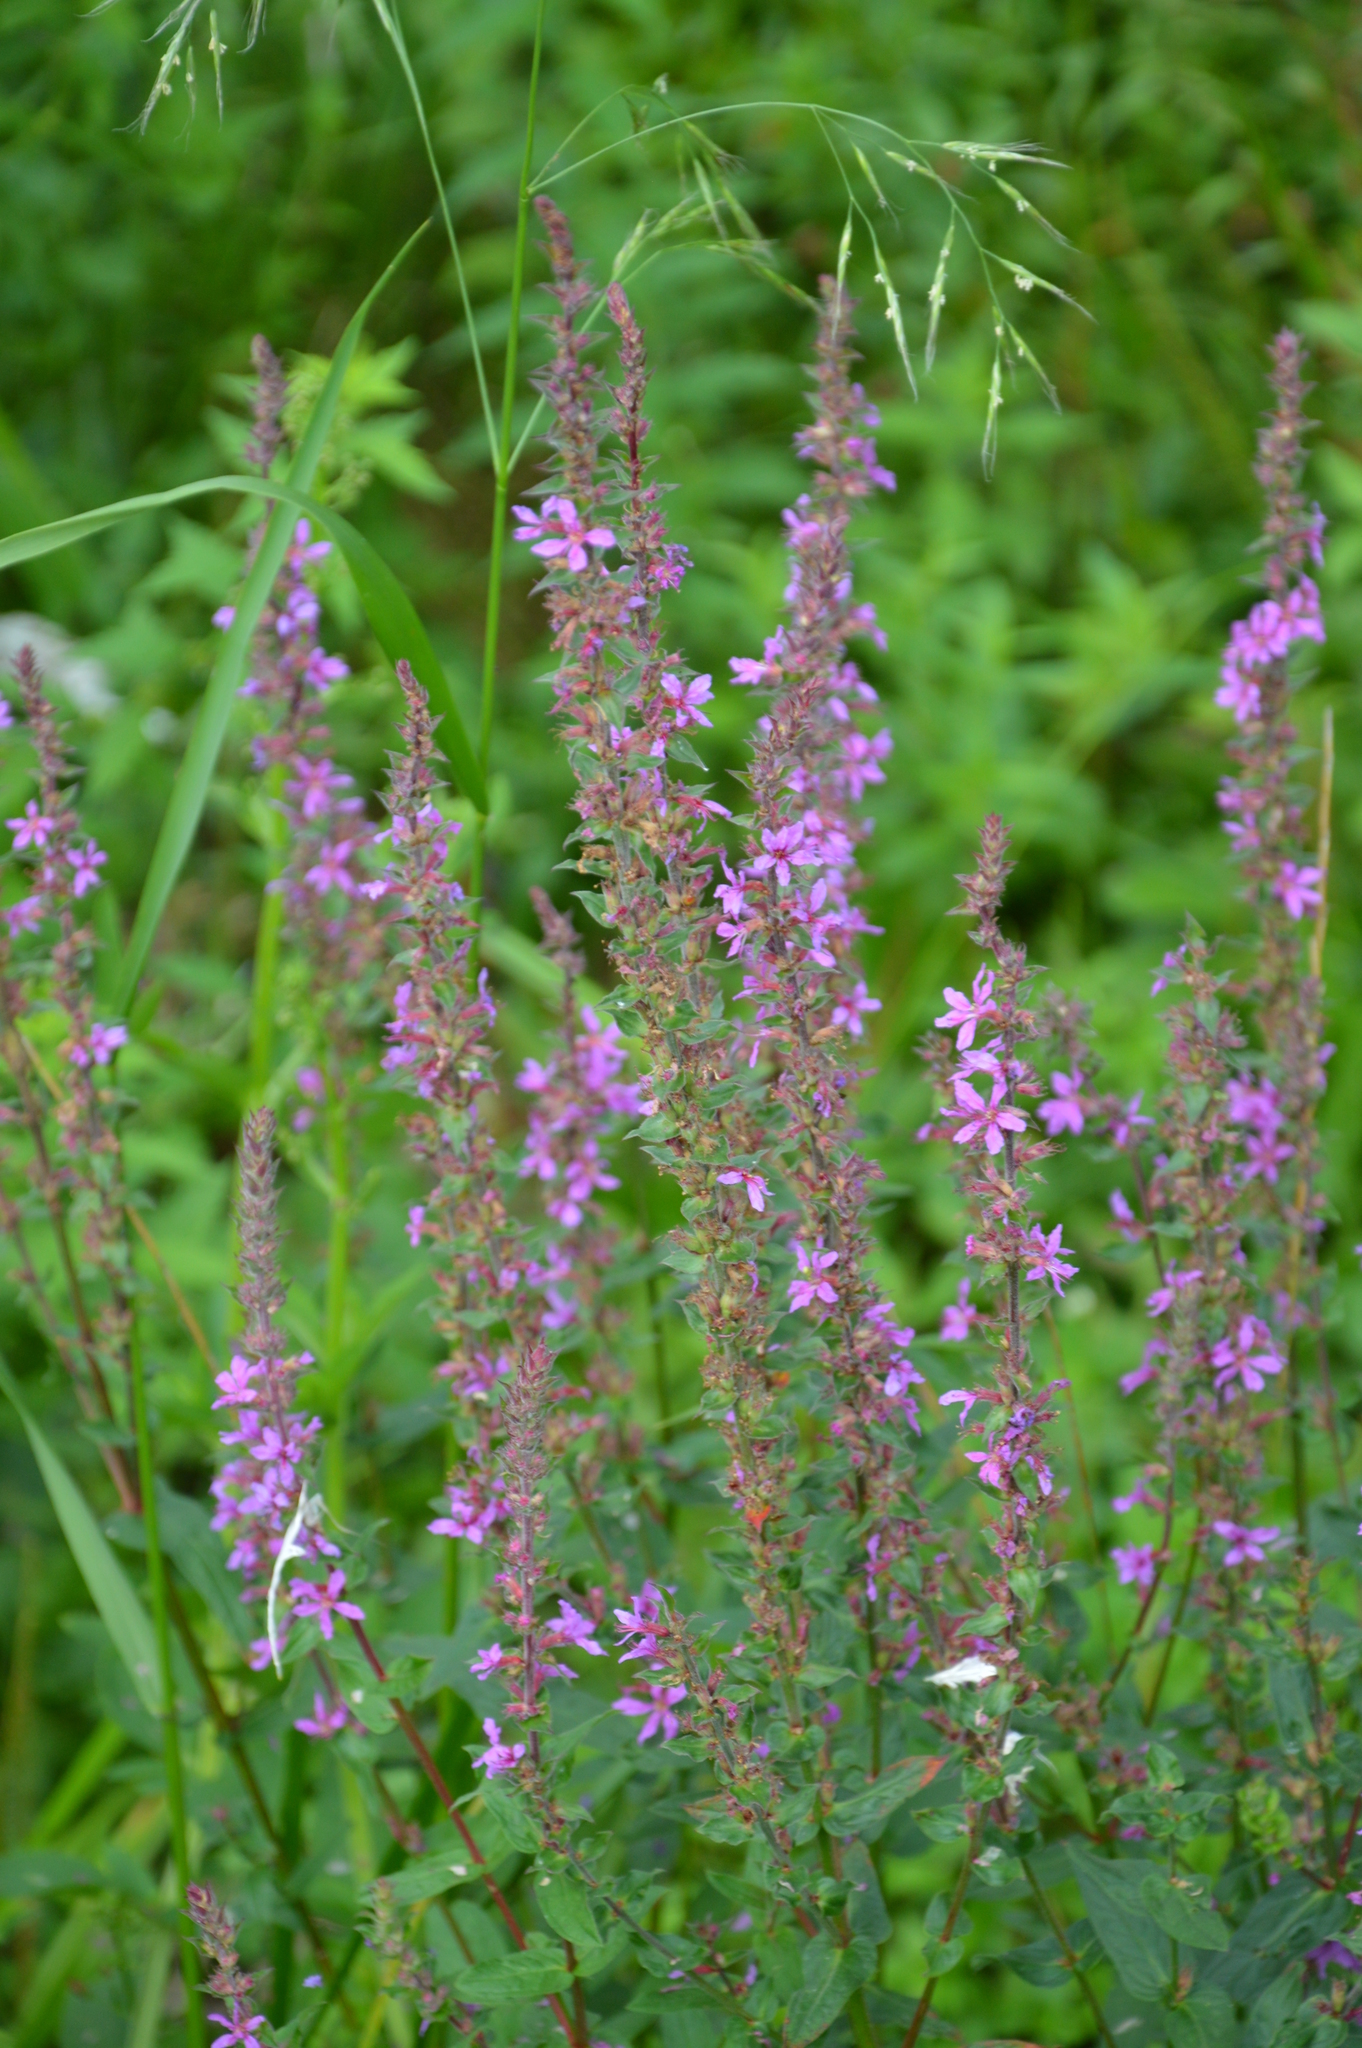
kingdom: Plantae
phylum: Tracheophyta
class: Magnoliopsida
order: Myrtales
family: Lythraceae
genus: Lythrum
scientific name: Lythrum salicaria
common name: Purple loosestrife
